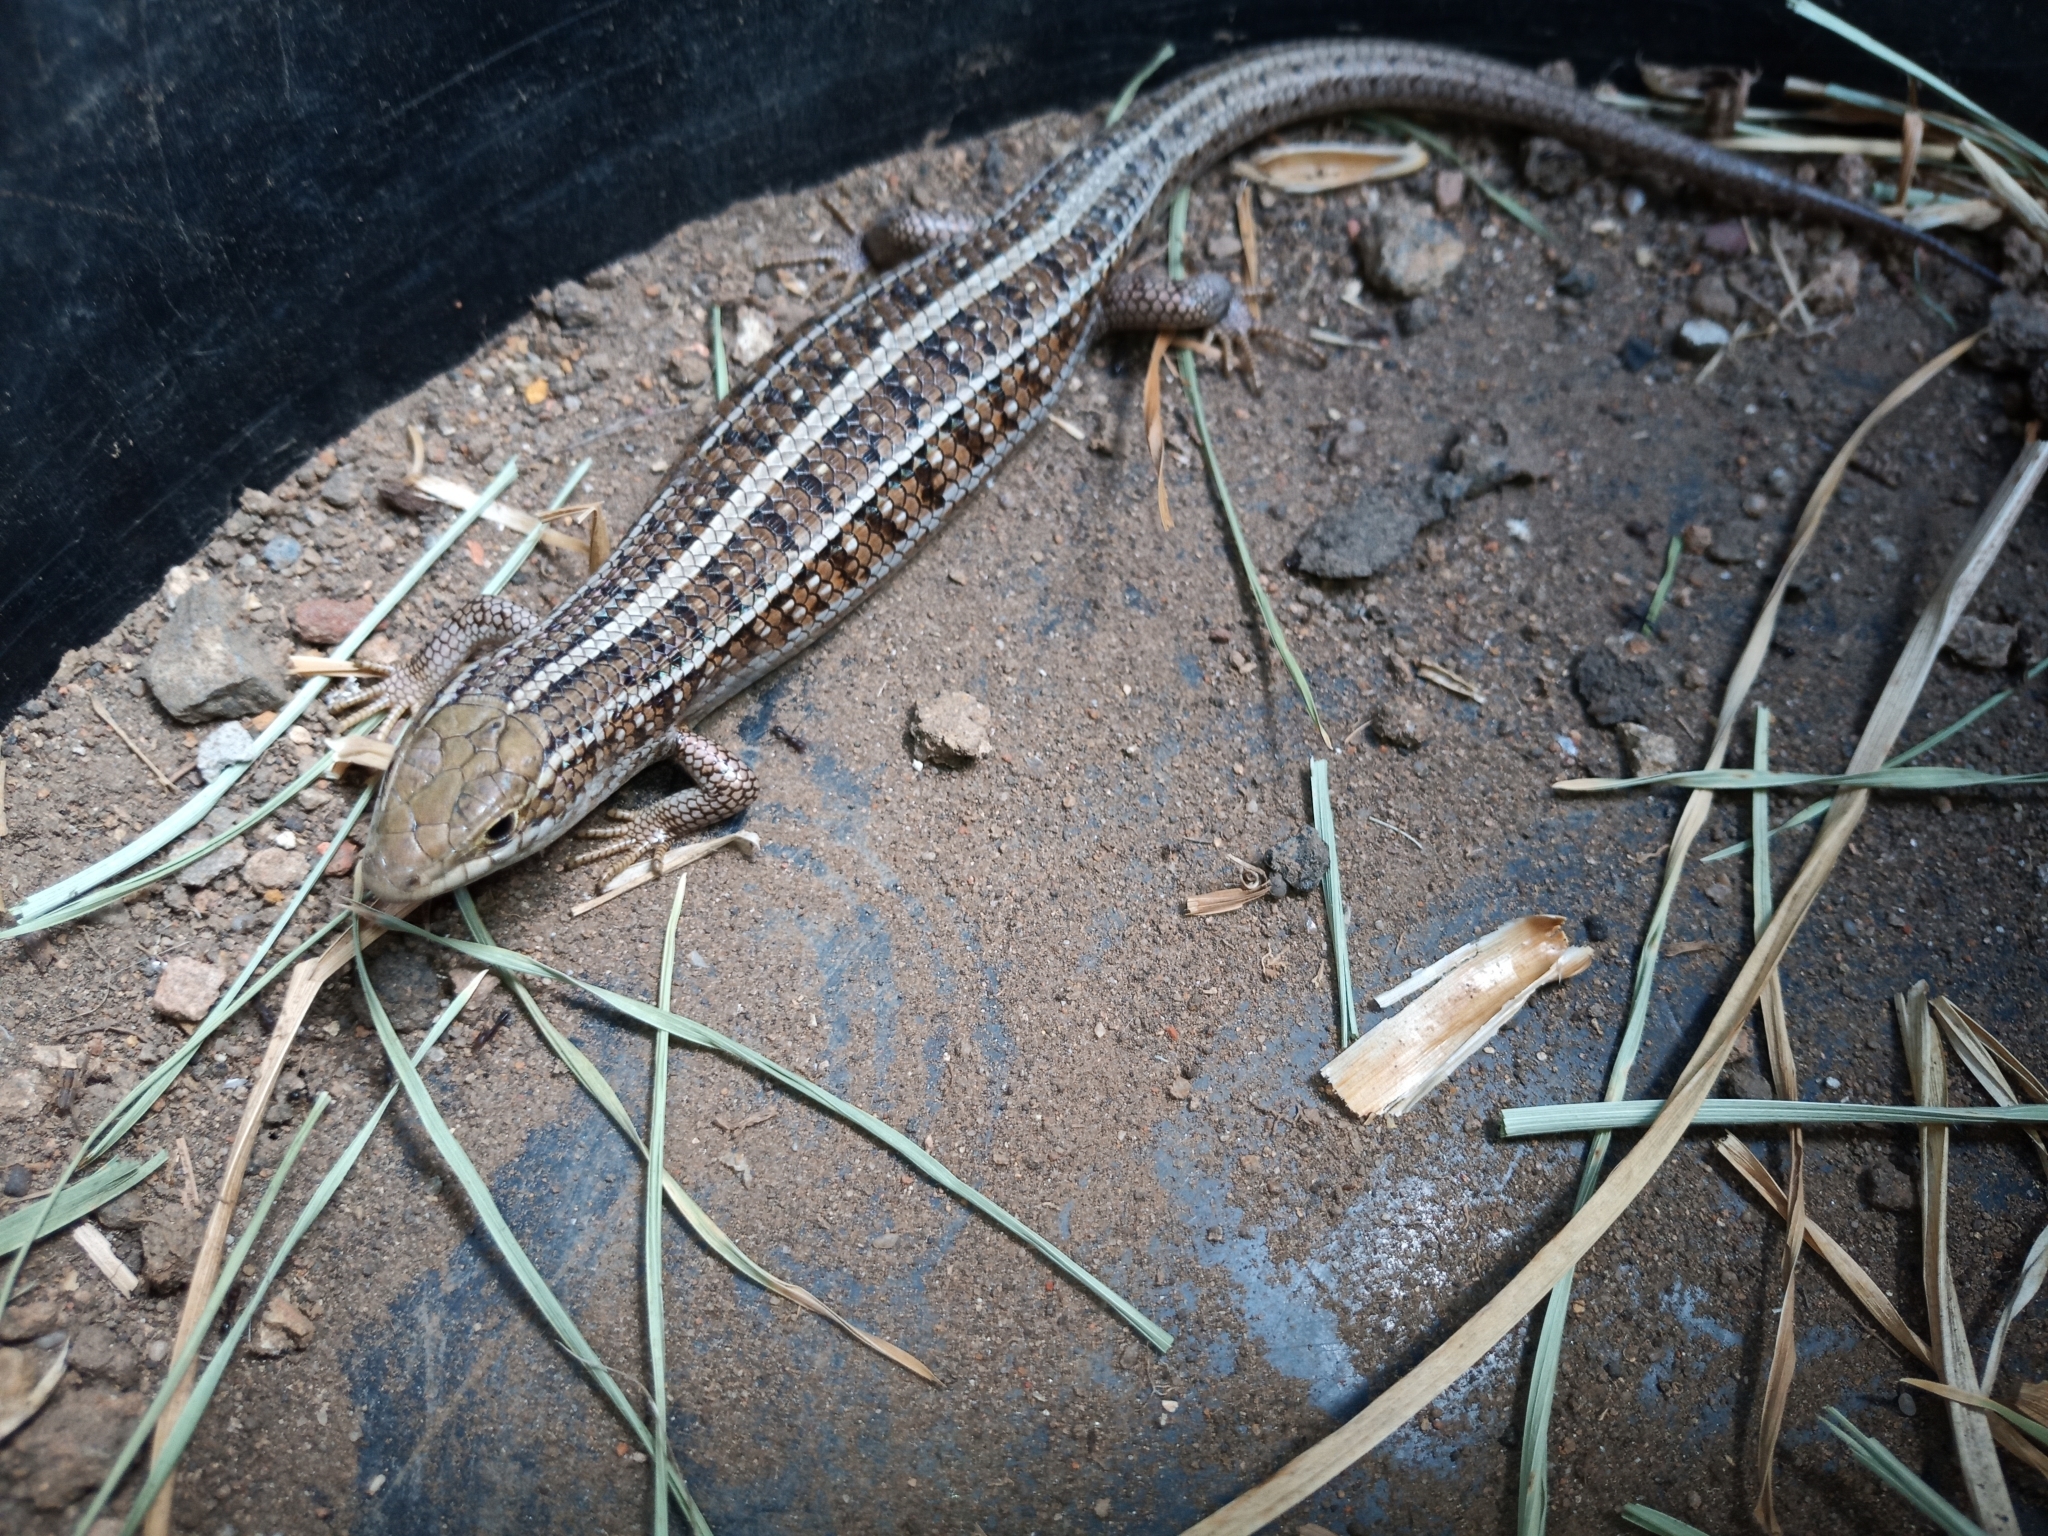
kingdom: Animalia
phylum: Chordata
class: Squamata
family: Scincidae
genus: Trachylepis
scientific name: Trachylepis capensis
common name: Cape skink
